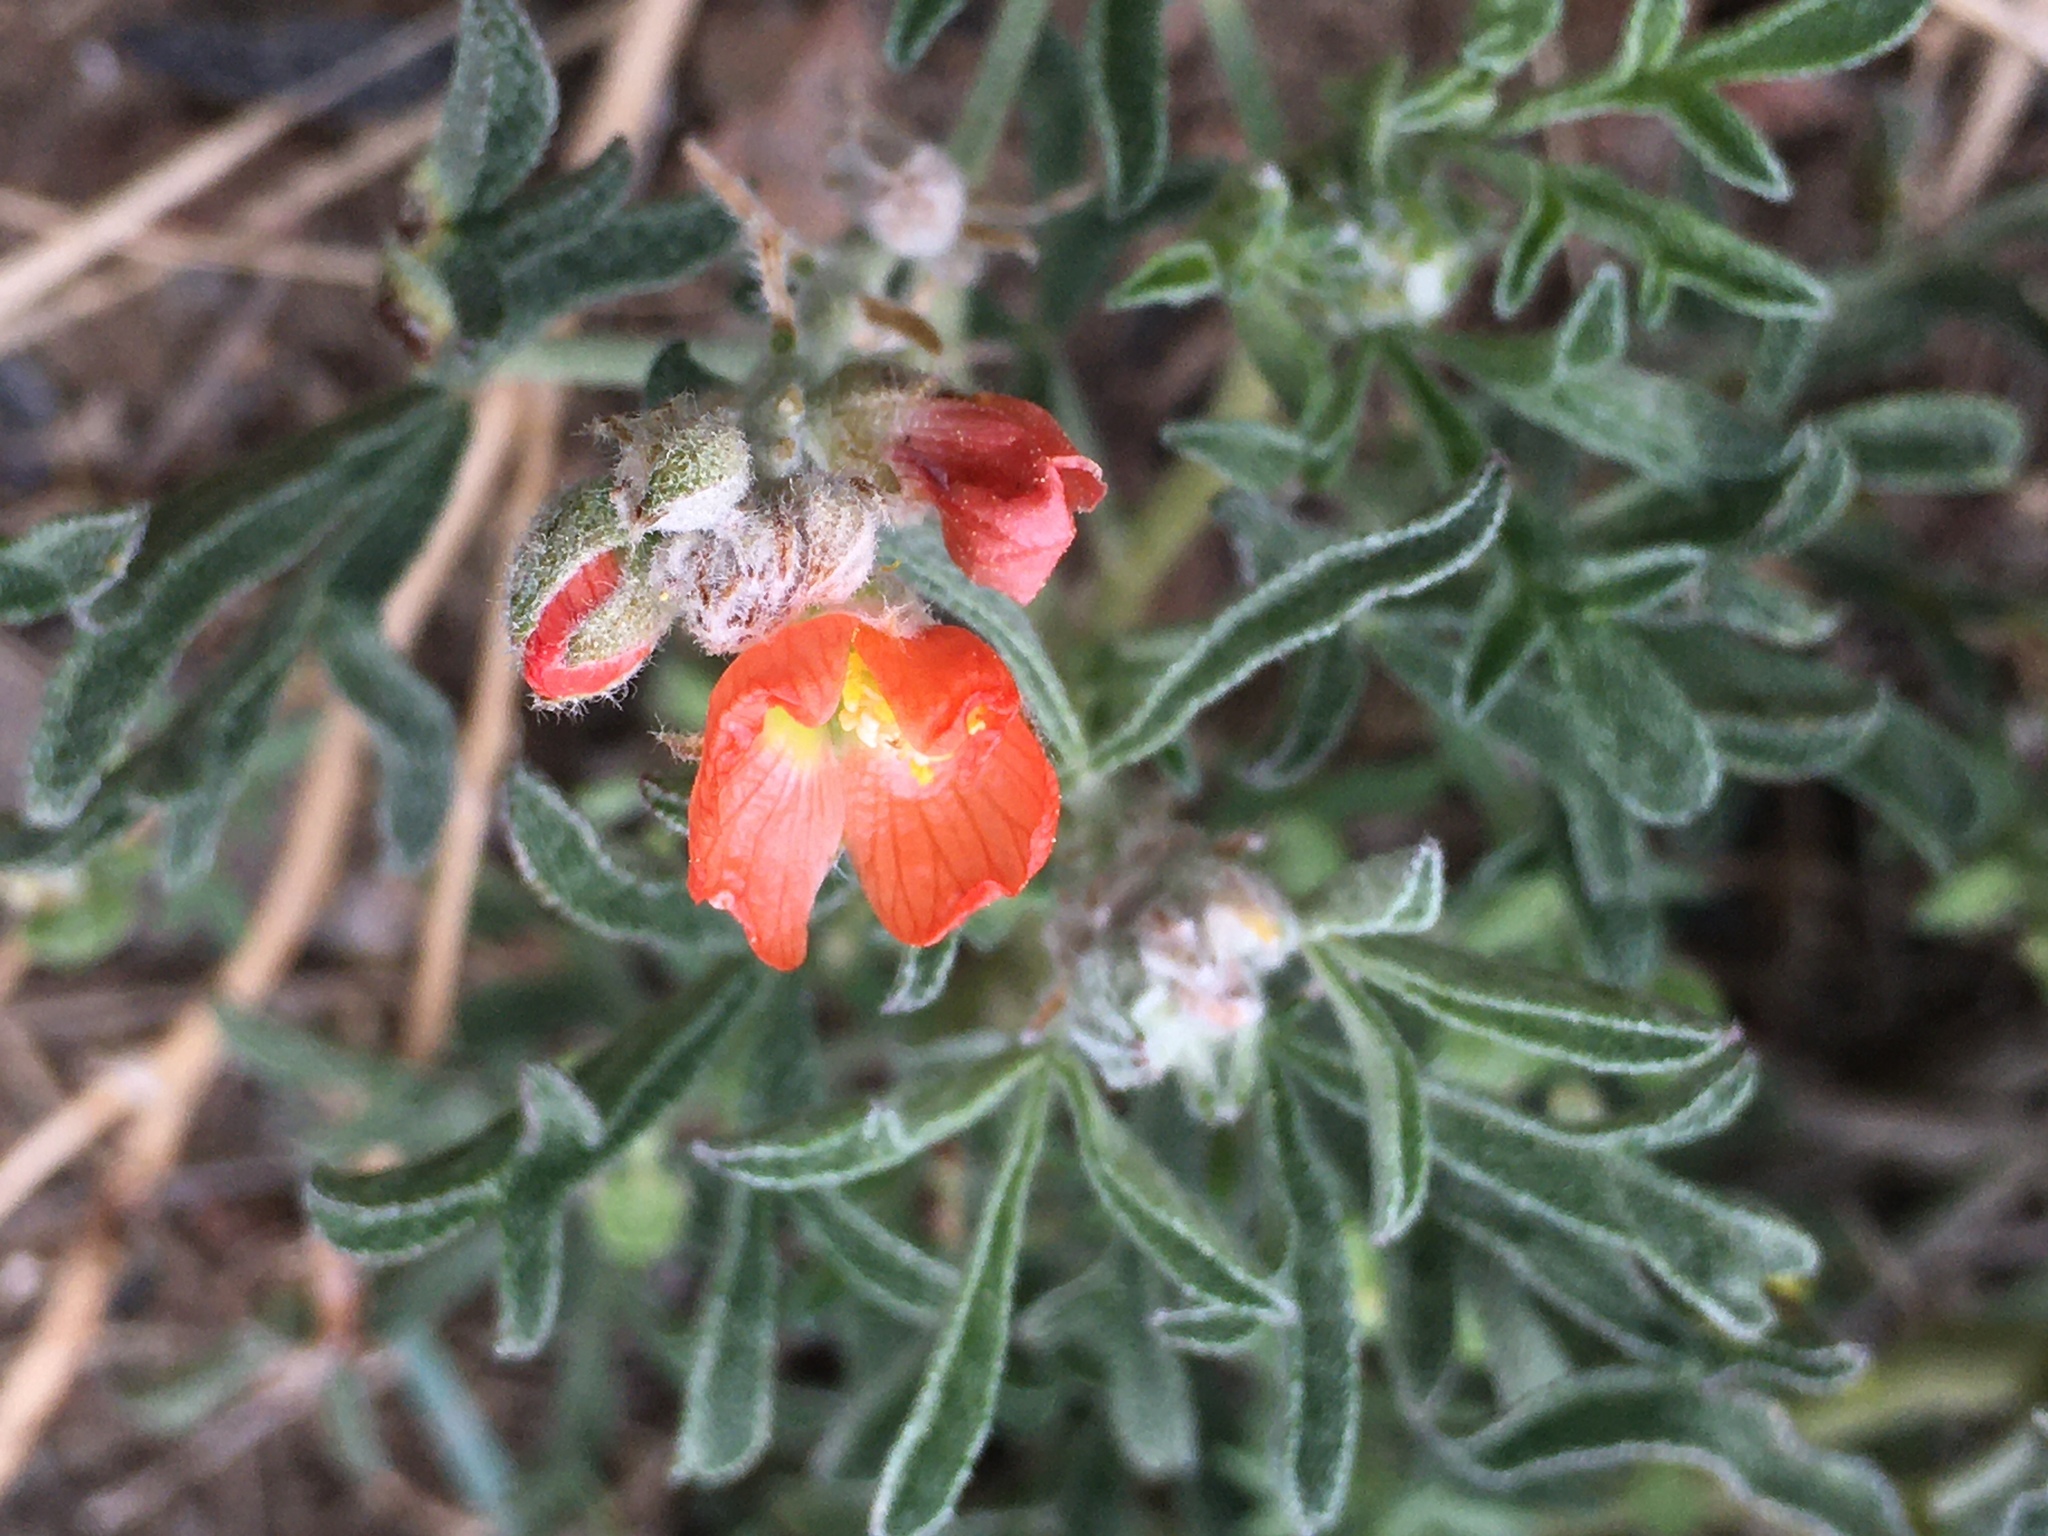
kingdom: Plantae
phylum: Tracheophyta
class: Magnoliopsida
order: Malvales
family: Malvaceae
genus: Sphaeralcea
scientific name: Sphaeralcea coccinea
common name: Moss-rose
